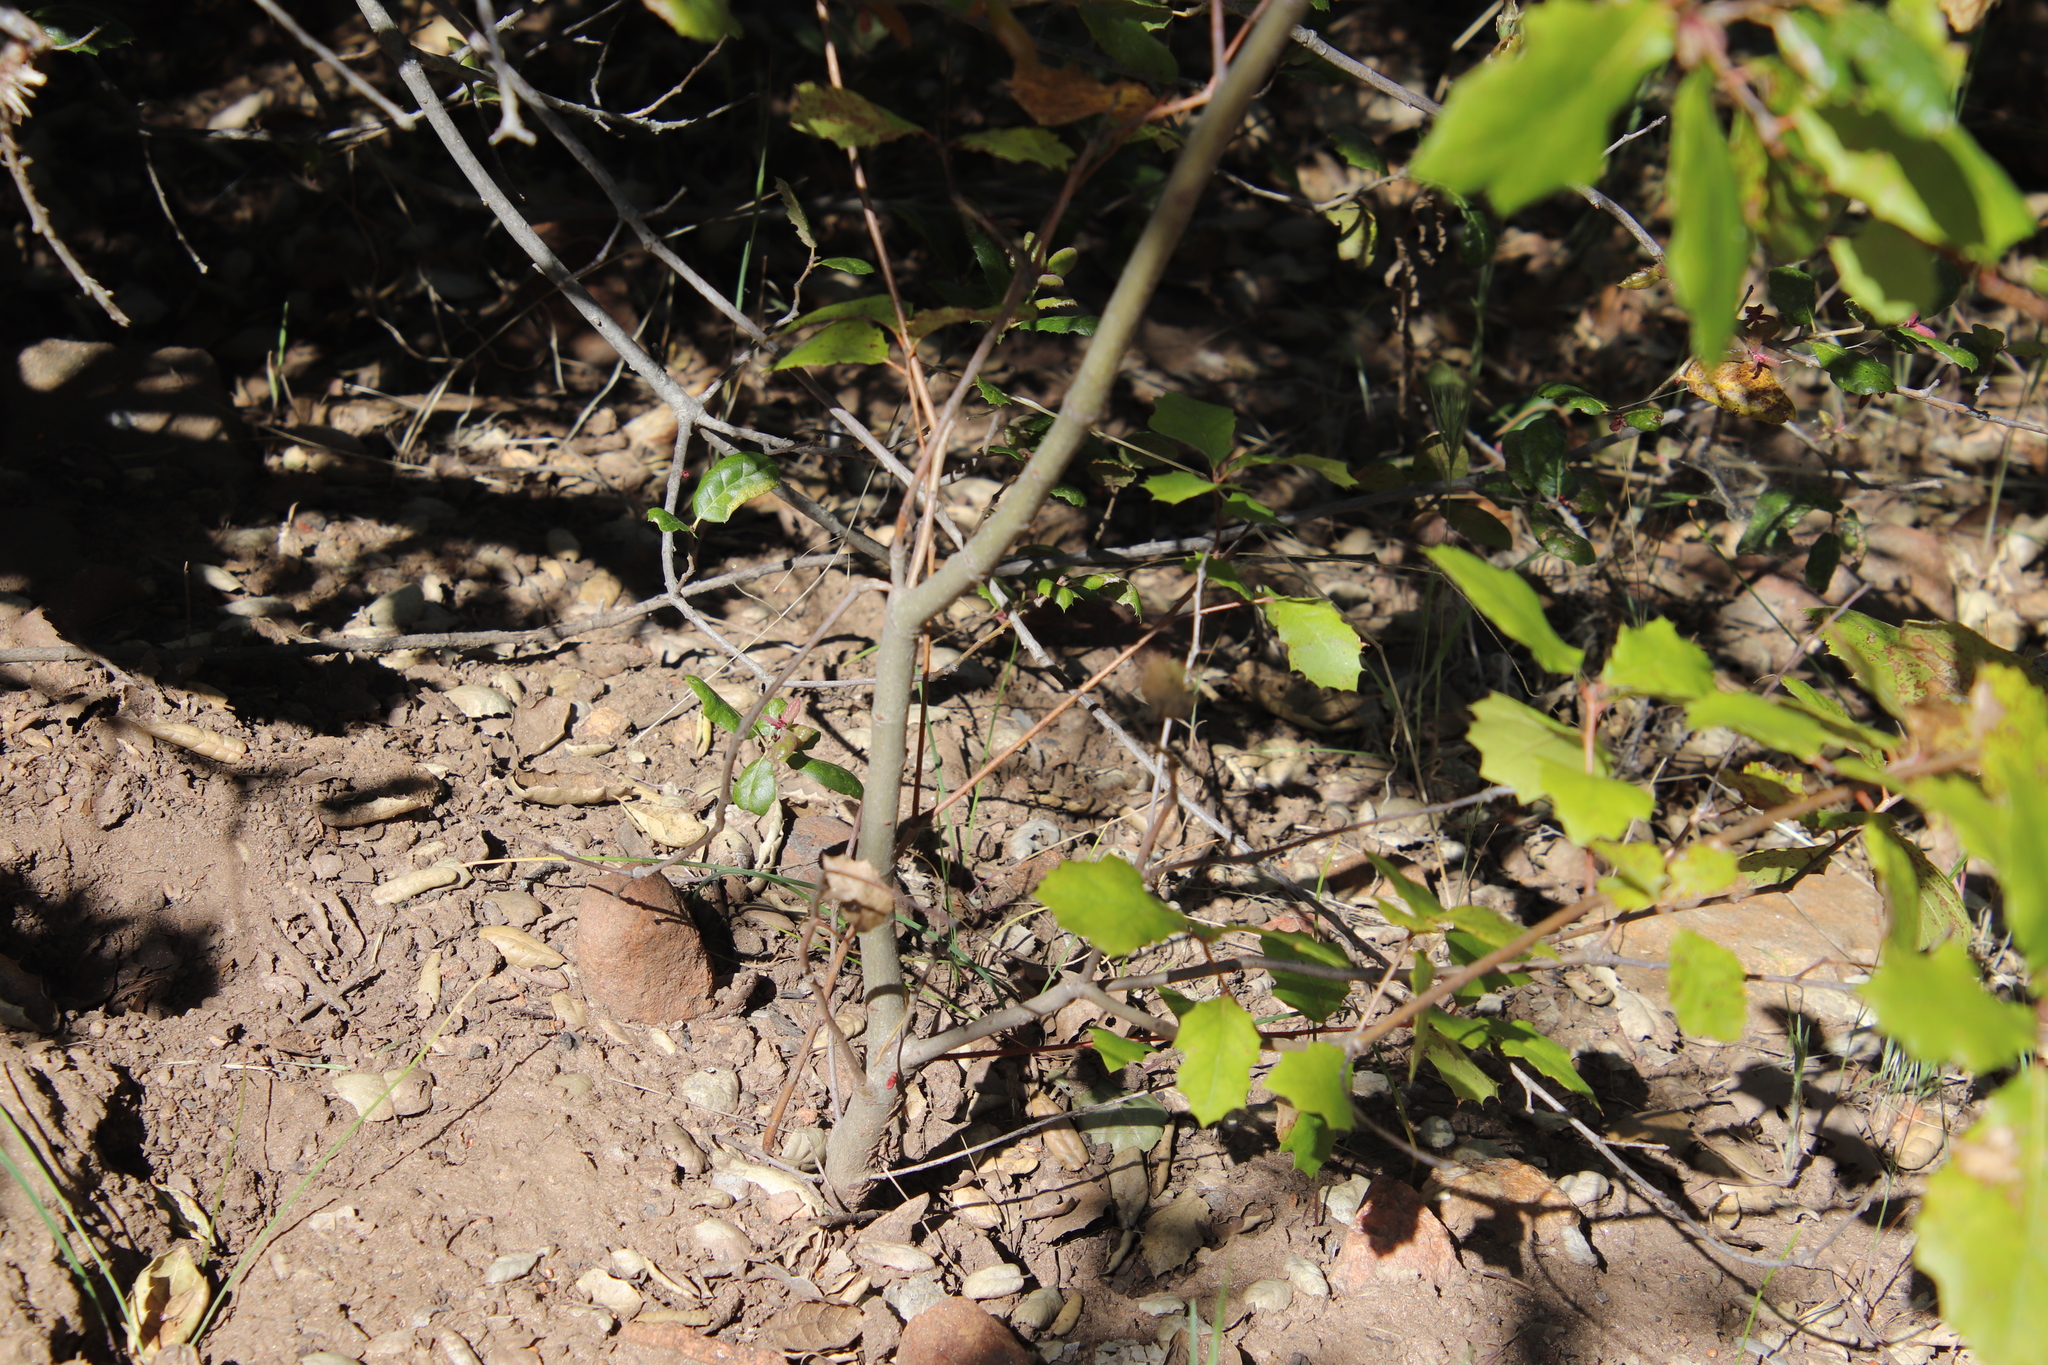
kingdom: Plantae
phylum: Tracheophyta
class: Magnoliopsida
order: Fagales
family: Fagaceae
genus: Quercus
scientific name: Quercus agrifolia
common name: California live oak
